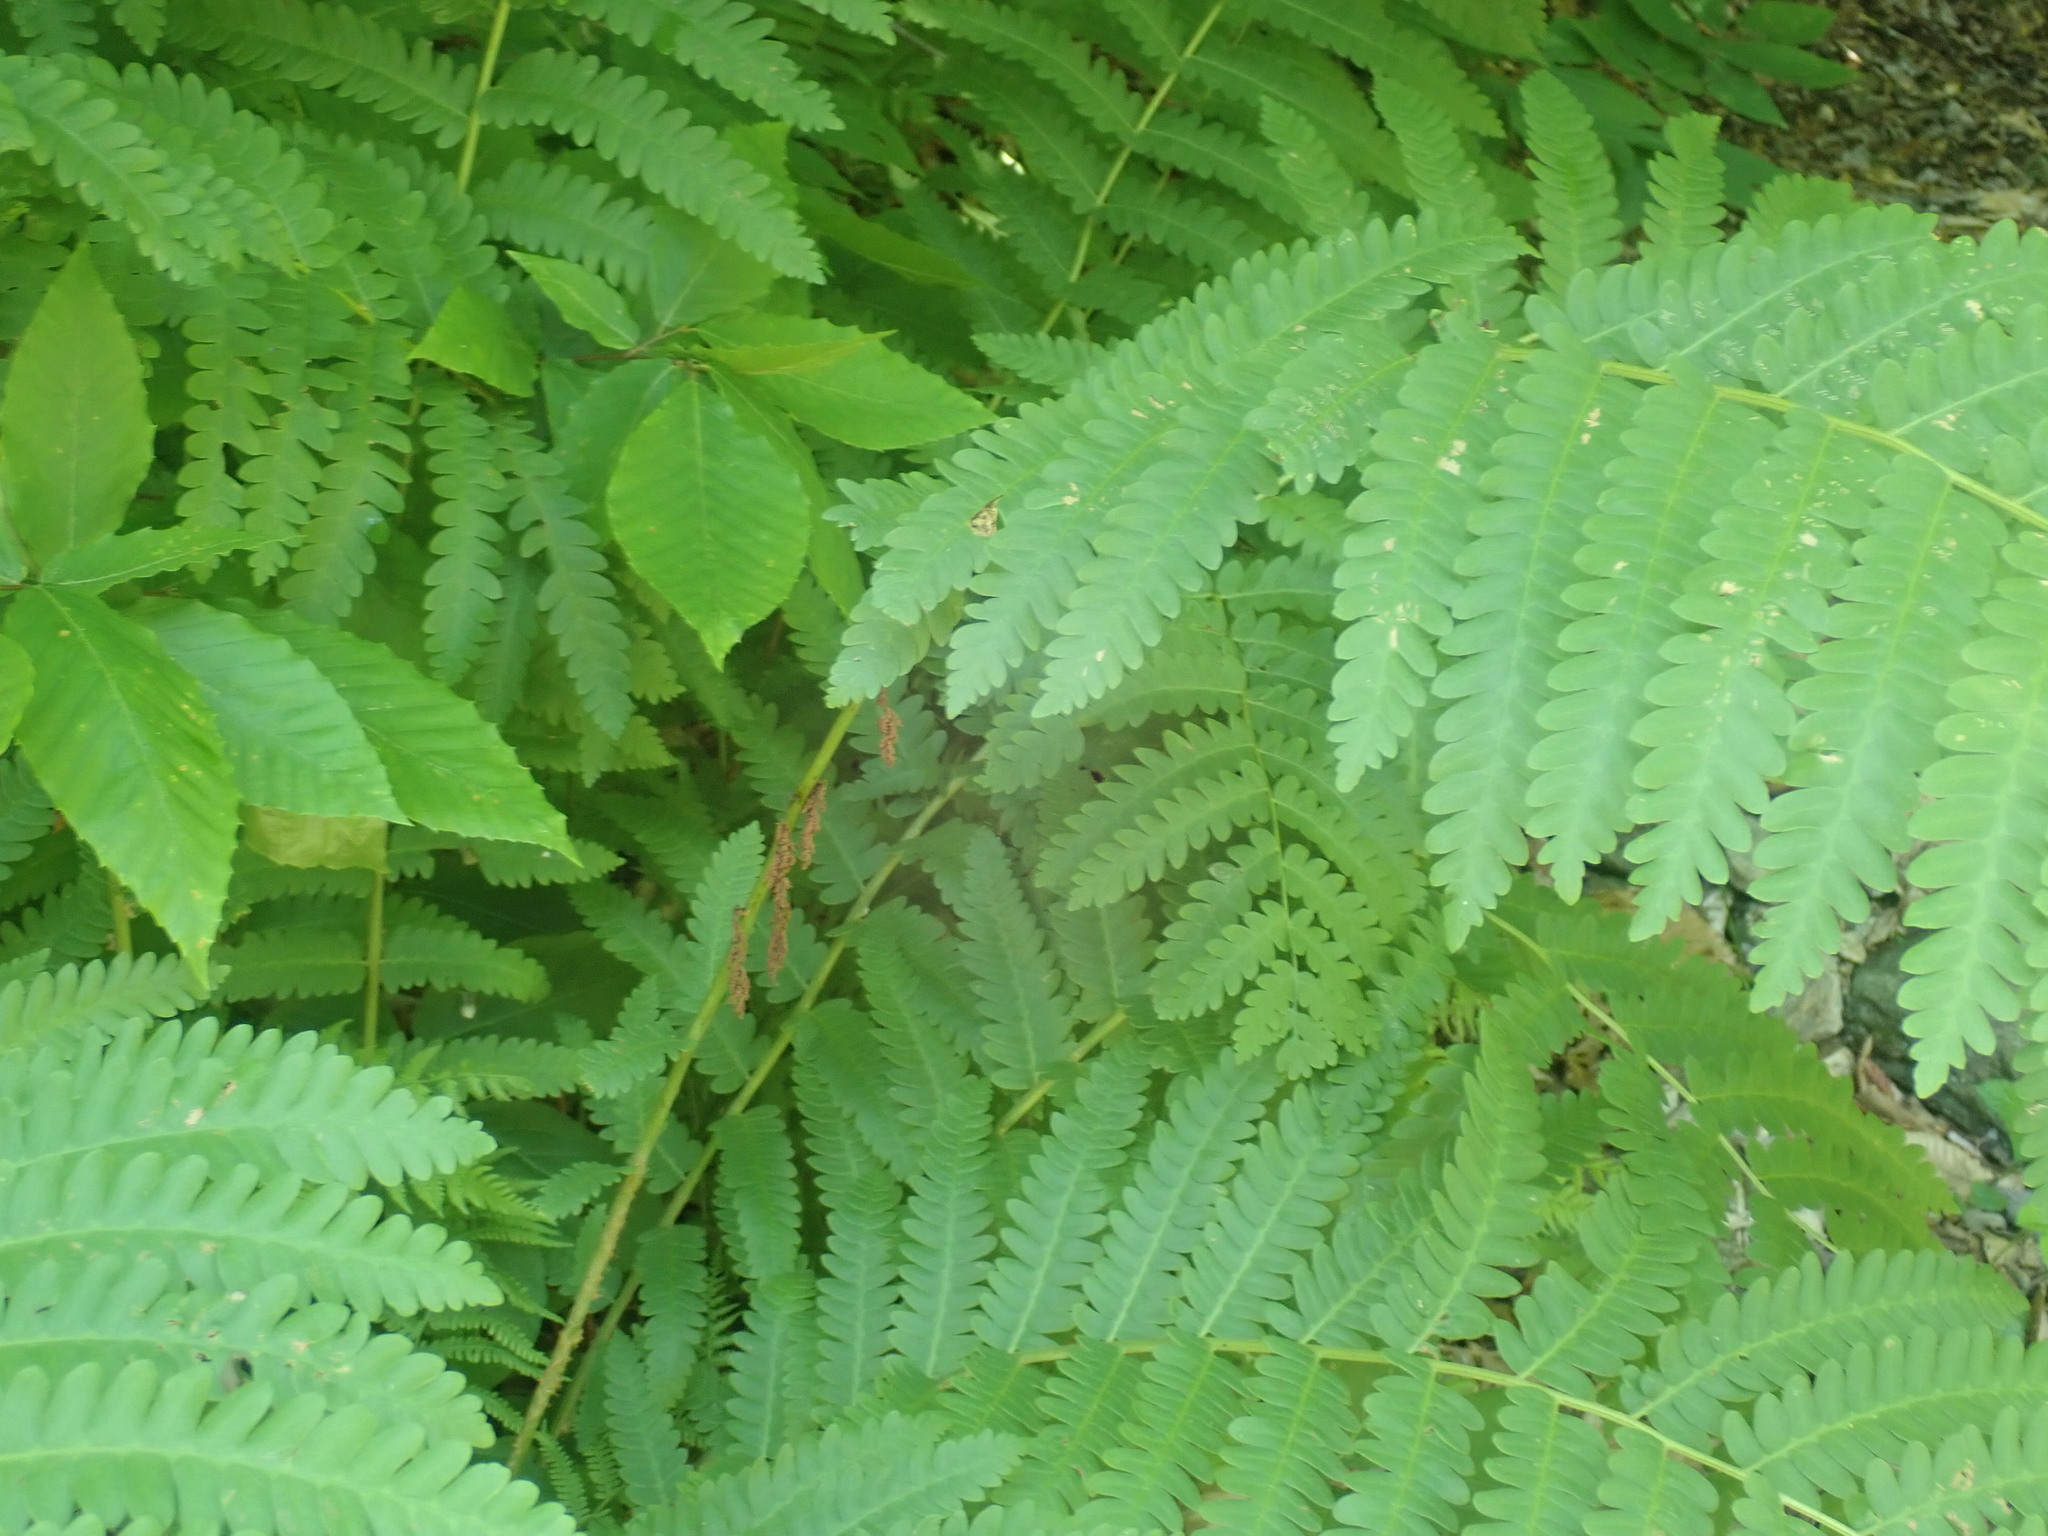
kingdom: Plantae
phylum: Tracheophyta
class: Polypodiopsida
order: Osmundales
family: Osmundaceae
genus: Claytosmunda
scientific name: Claytosmunda claytoniana
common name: Clayton's fern
